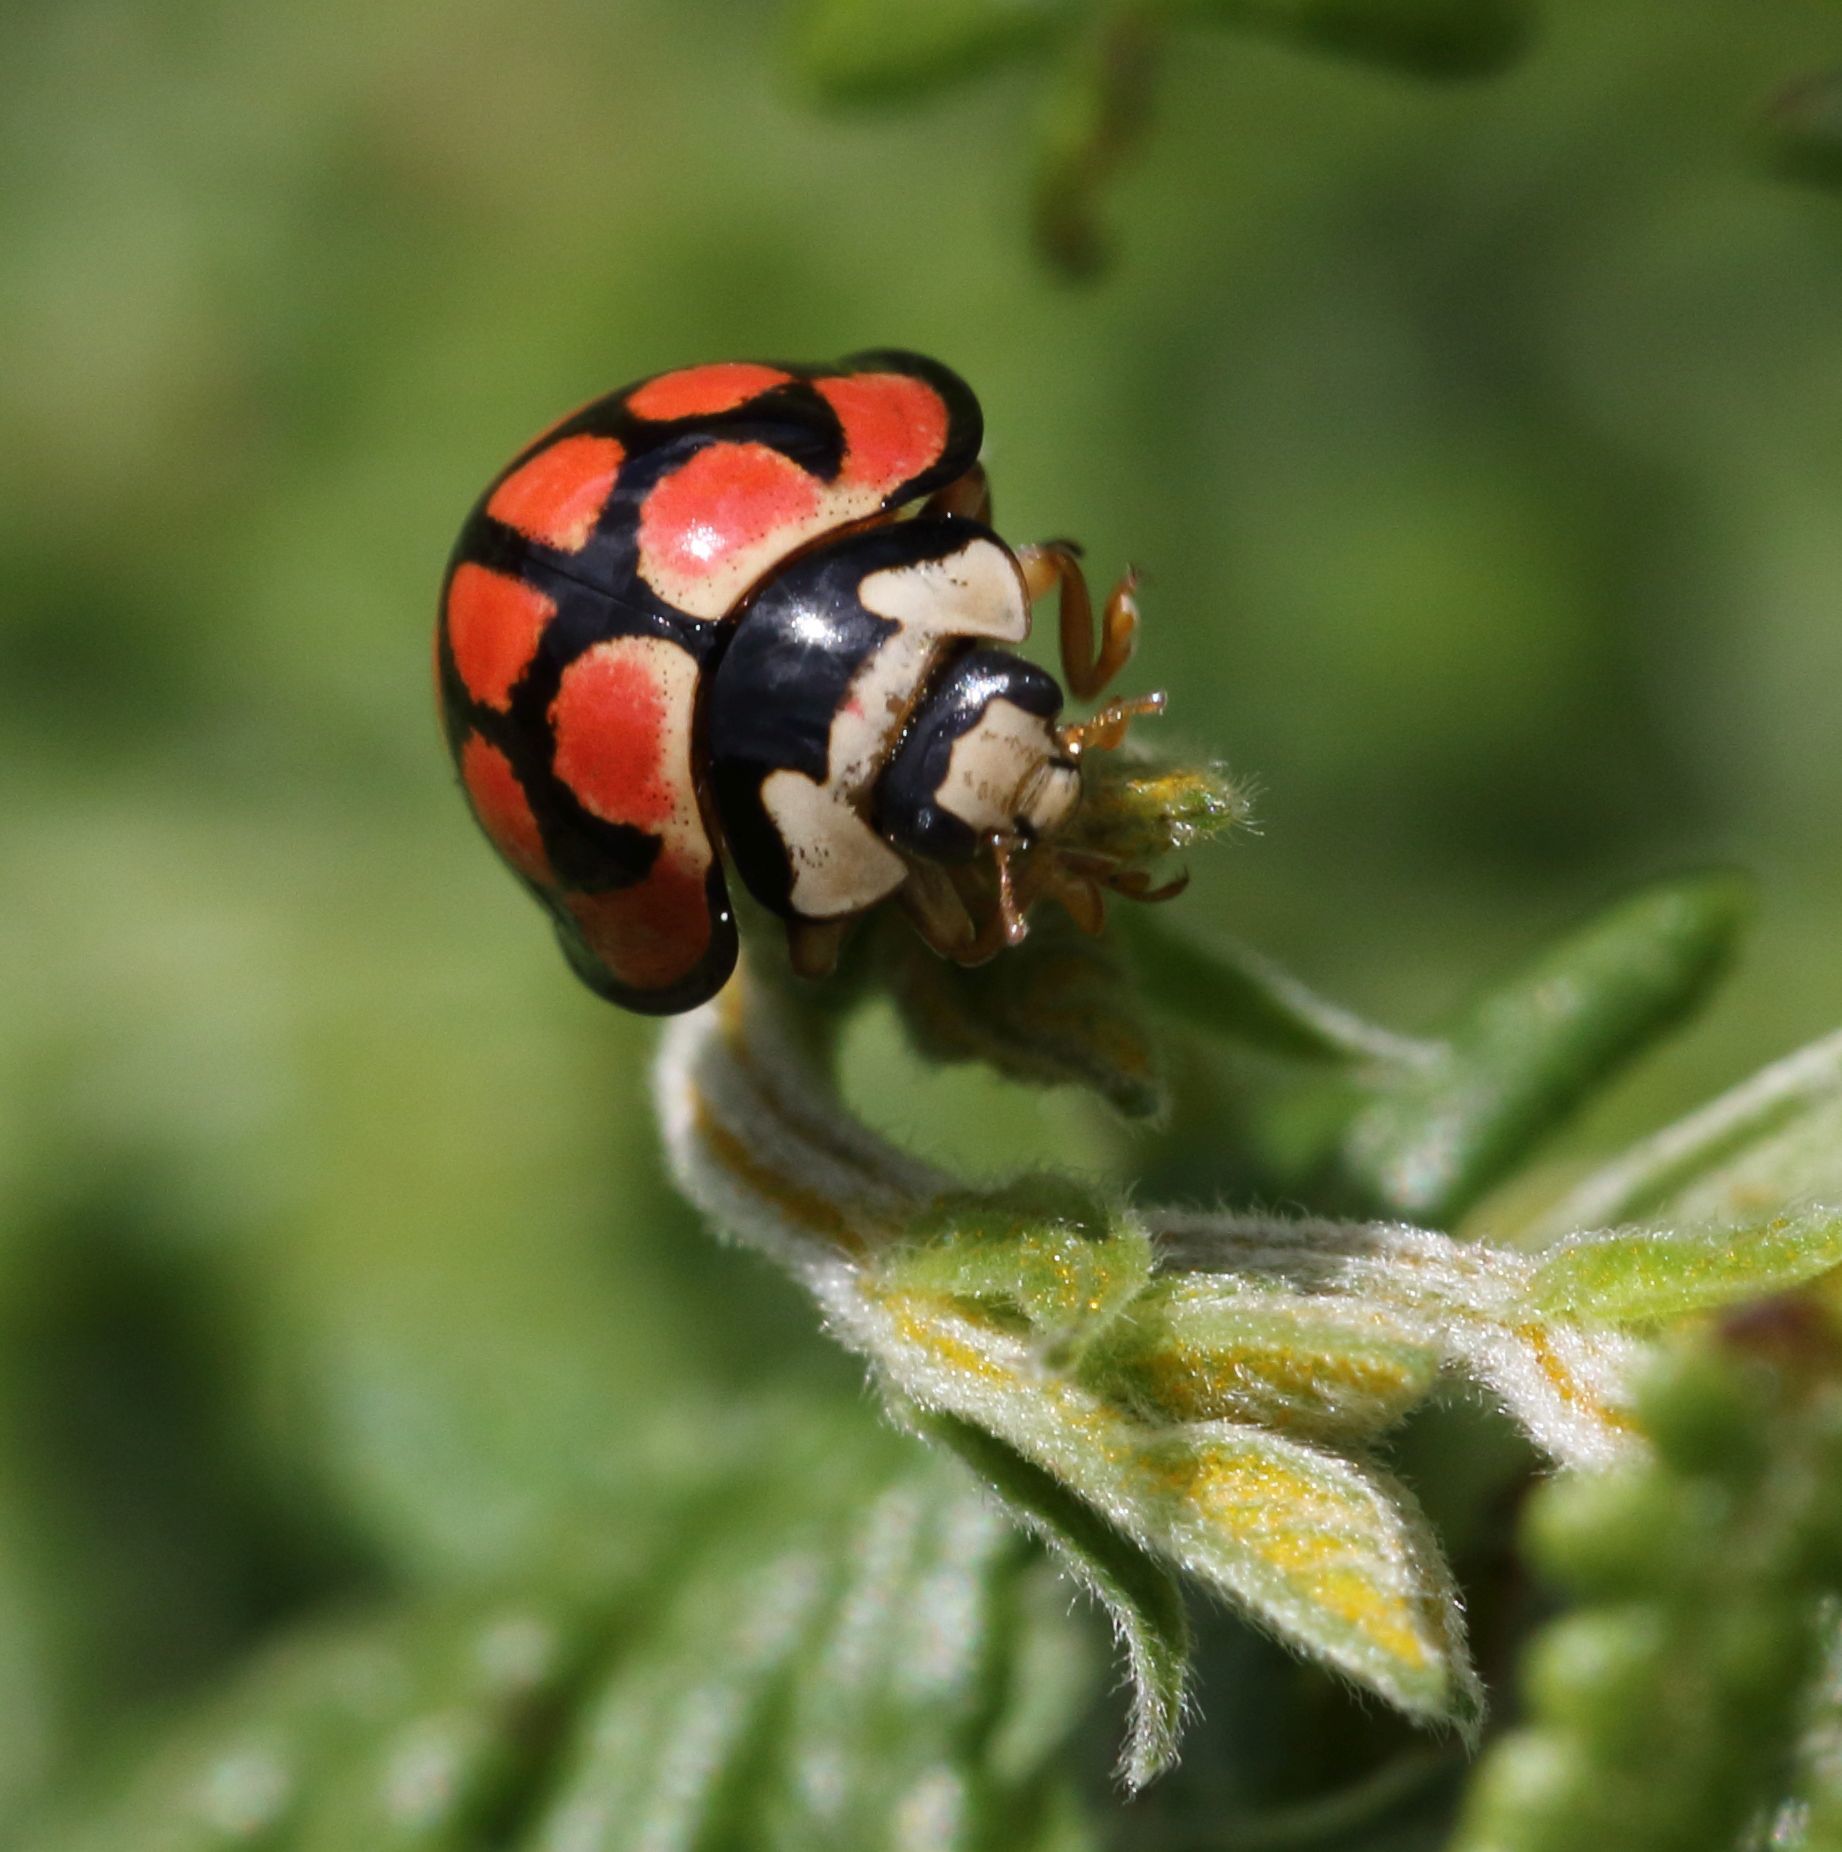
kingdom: Animalia
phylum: Arthropoda
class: Insecta
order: Coleoptera
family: Coccinellidae
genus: Cheilomenes
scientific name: Cheilomenes lunata
